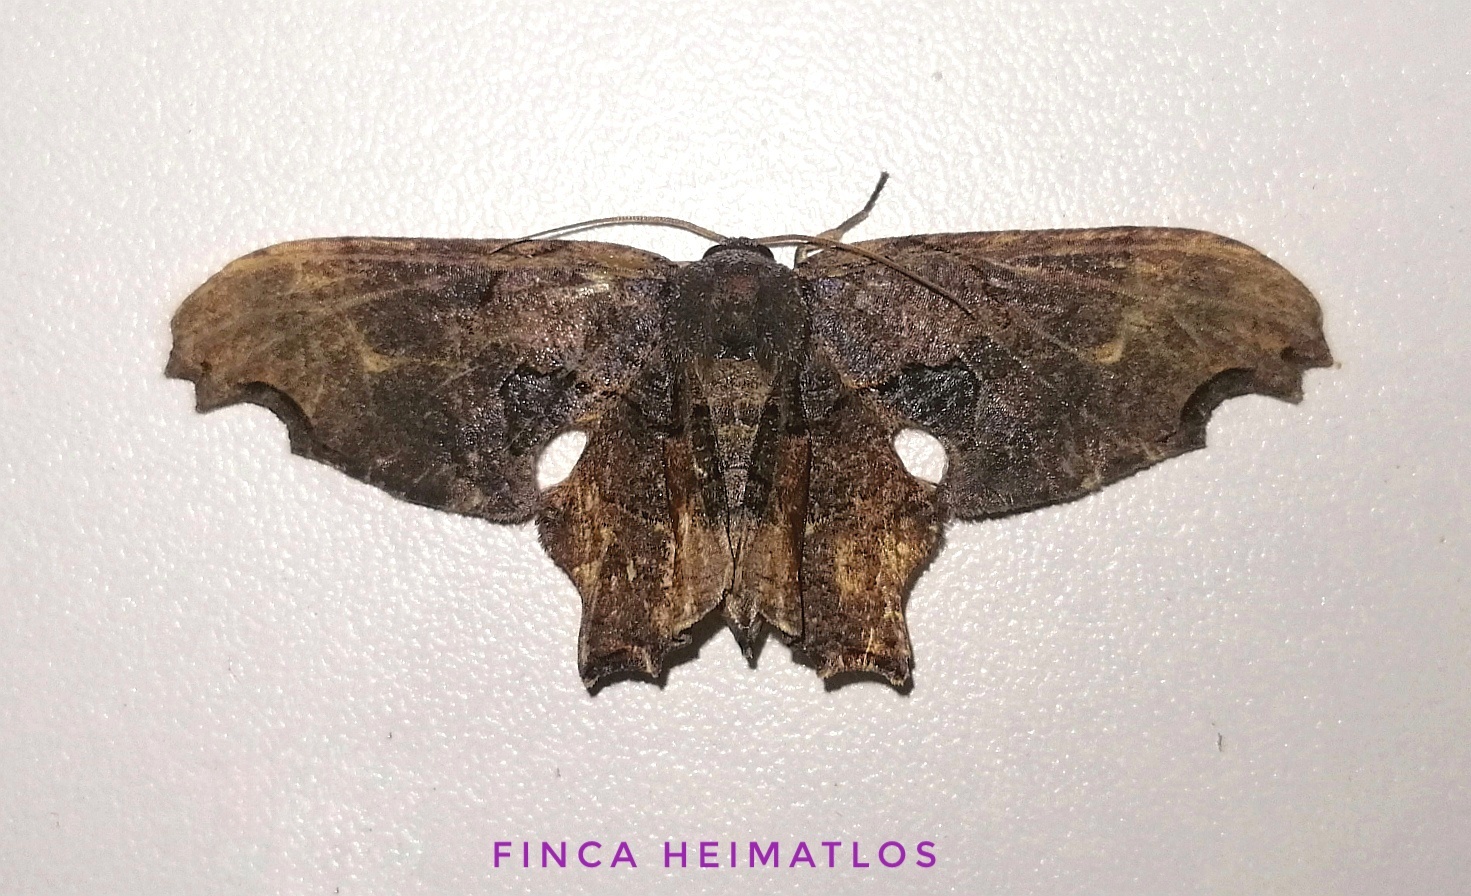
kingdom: Animalia
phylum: Arthropoda
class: Insecta
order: Lepidoptera
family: Uraniidae
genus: Epiplema
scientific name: Epiplema Erosia veninotata
